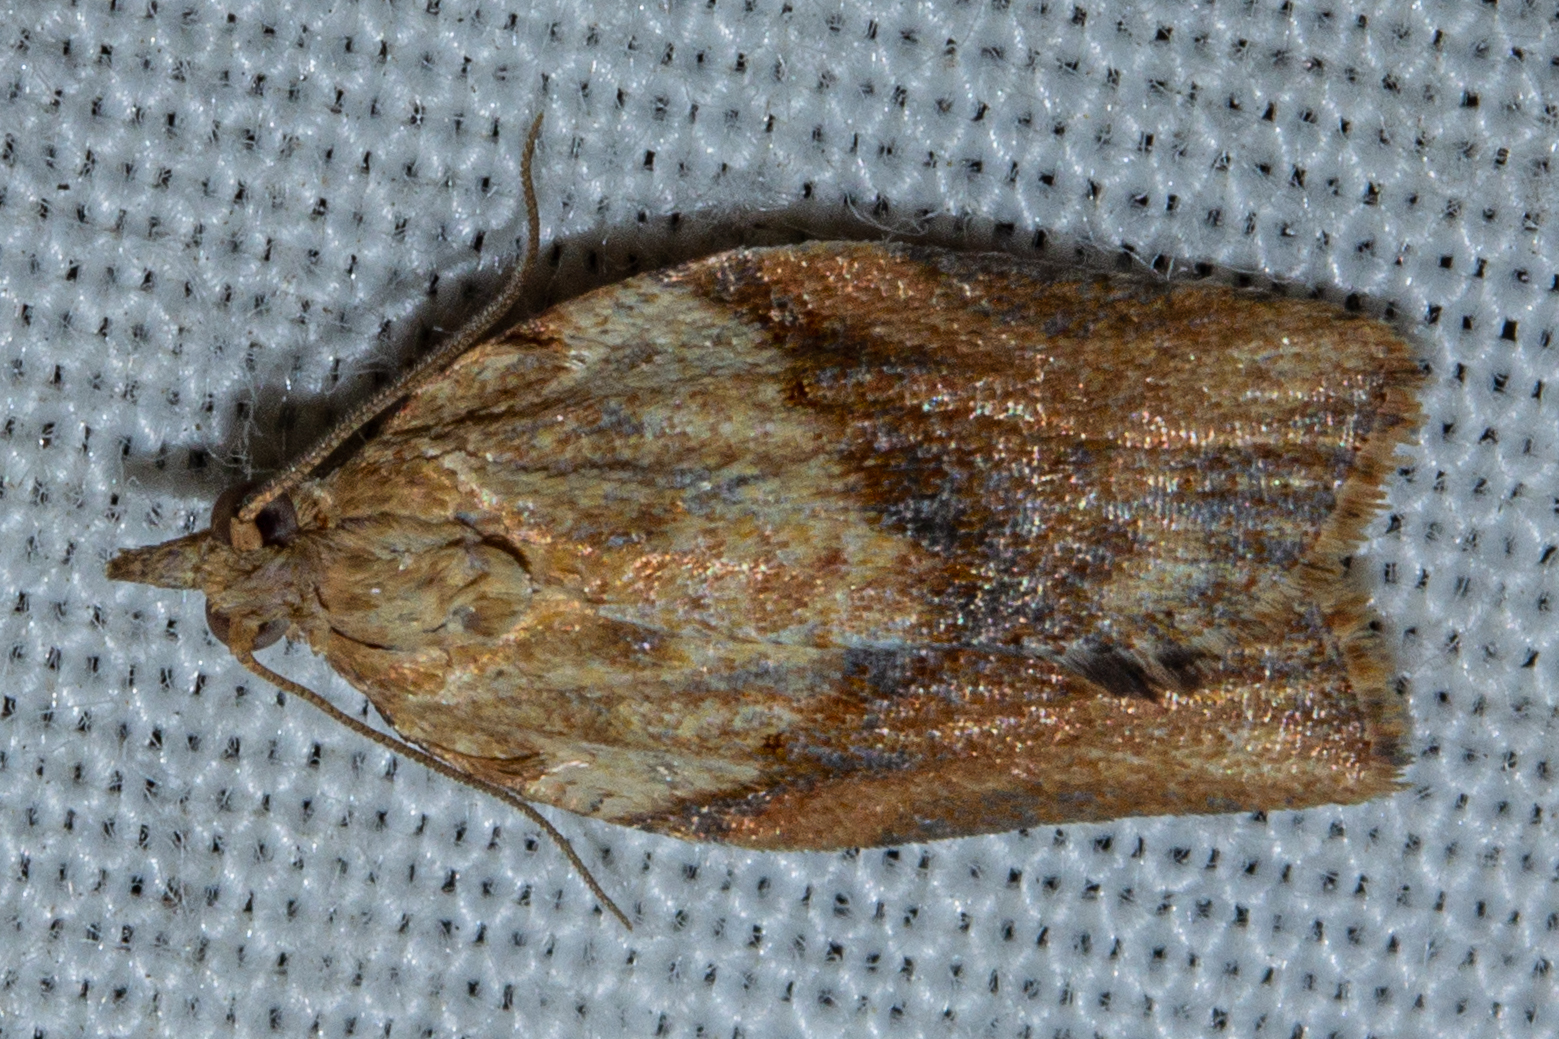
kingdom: Animalia
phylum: Arthropoda
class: Insecta
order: Lepidoptera
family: Tortricidae
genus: Epiphyas
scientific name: Epiphyas postvittana
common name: Light brown apple moth
